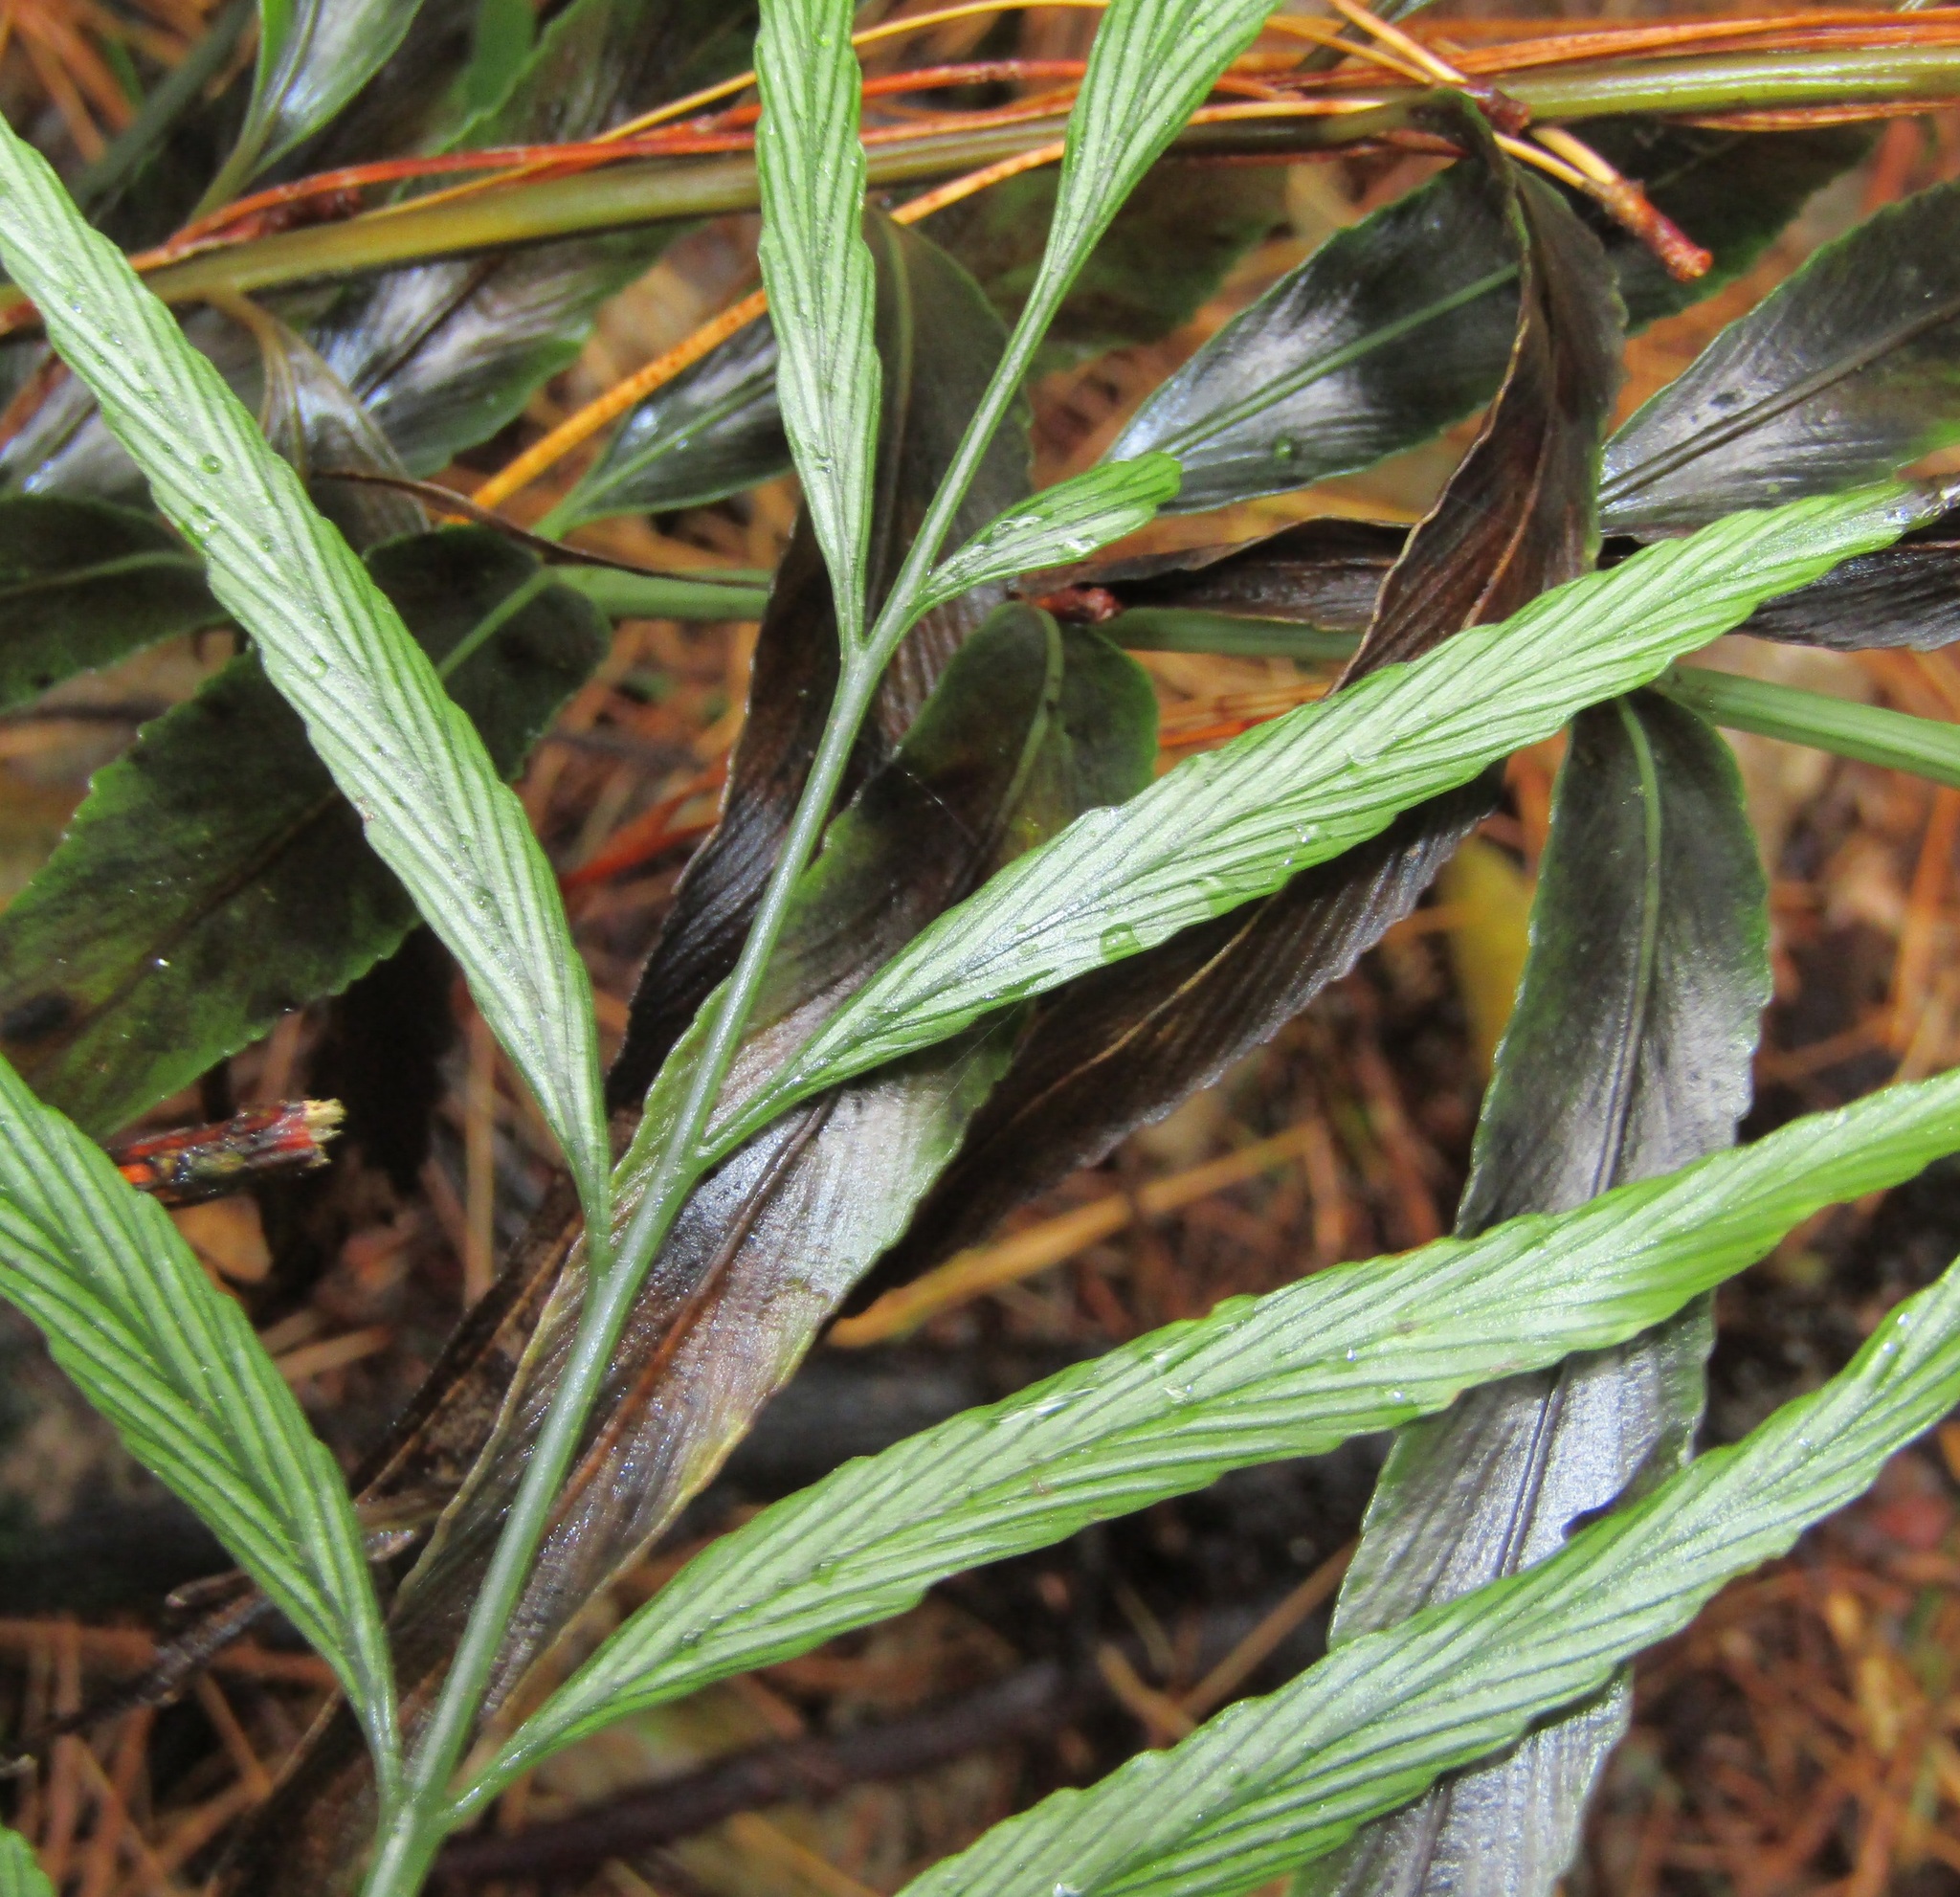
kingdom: Plantae
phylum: Tracheophyta
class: Polypodiopsida
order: Polypodiales
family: Aspleniaceae
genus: Asplenium
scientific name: Asplenium flaccidum
